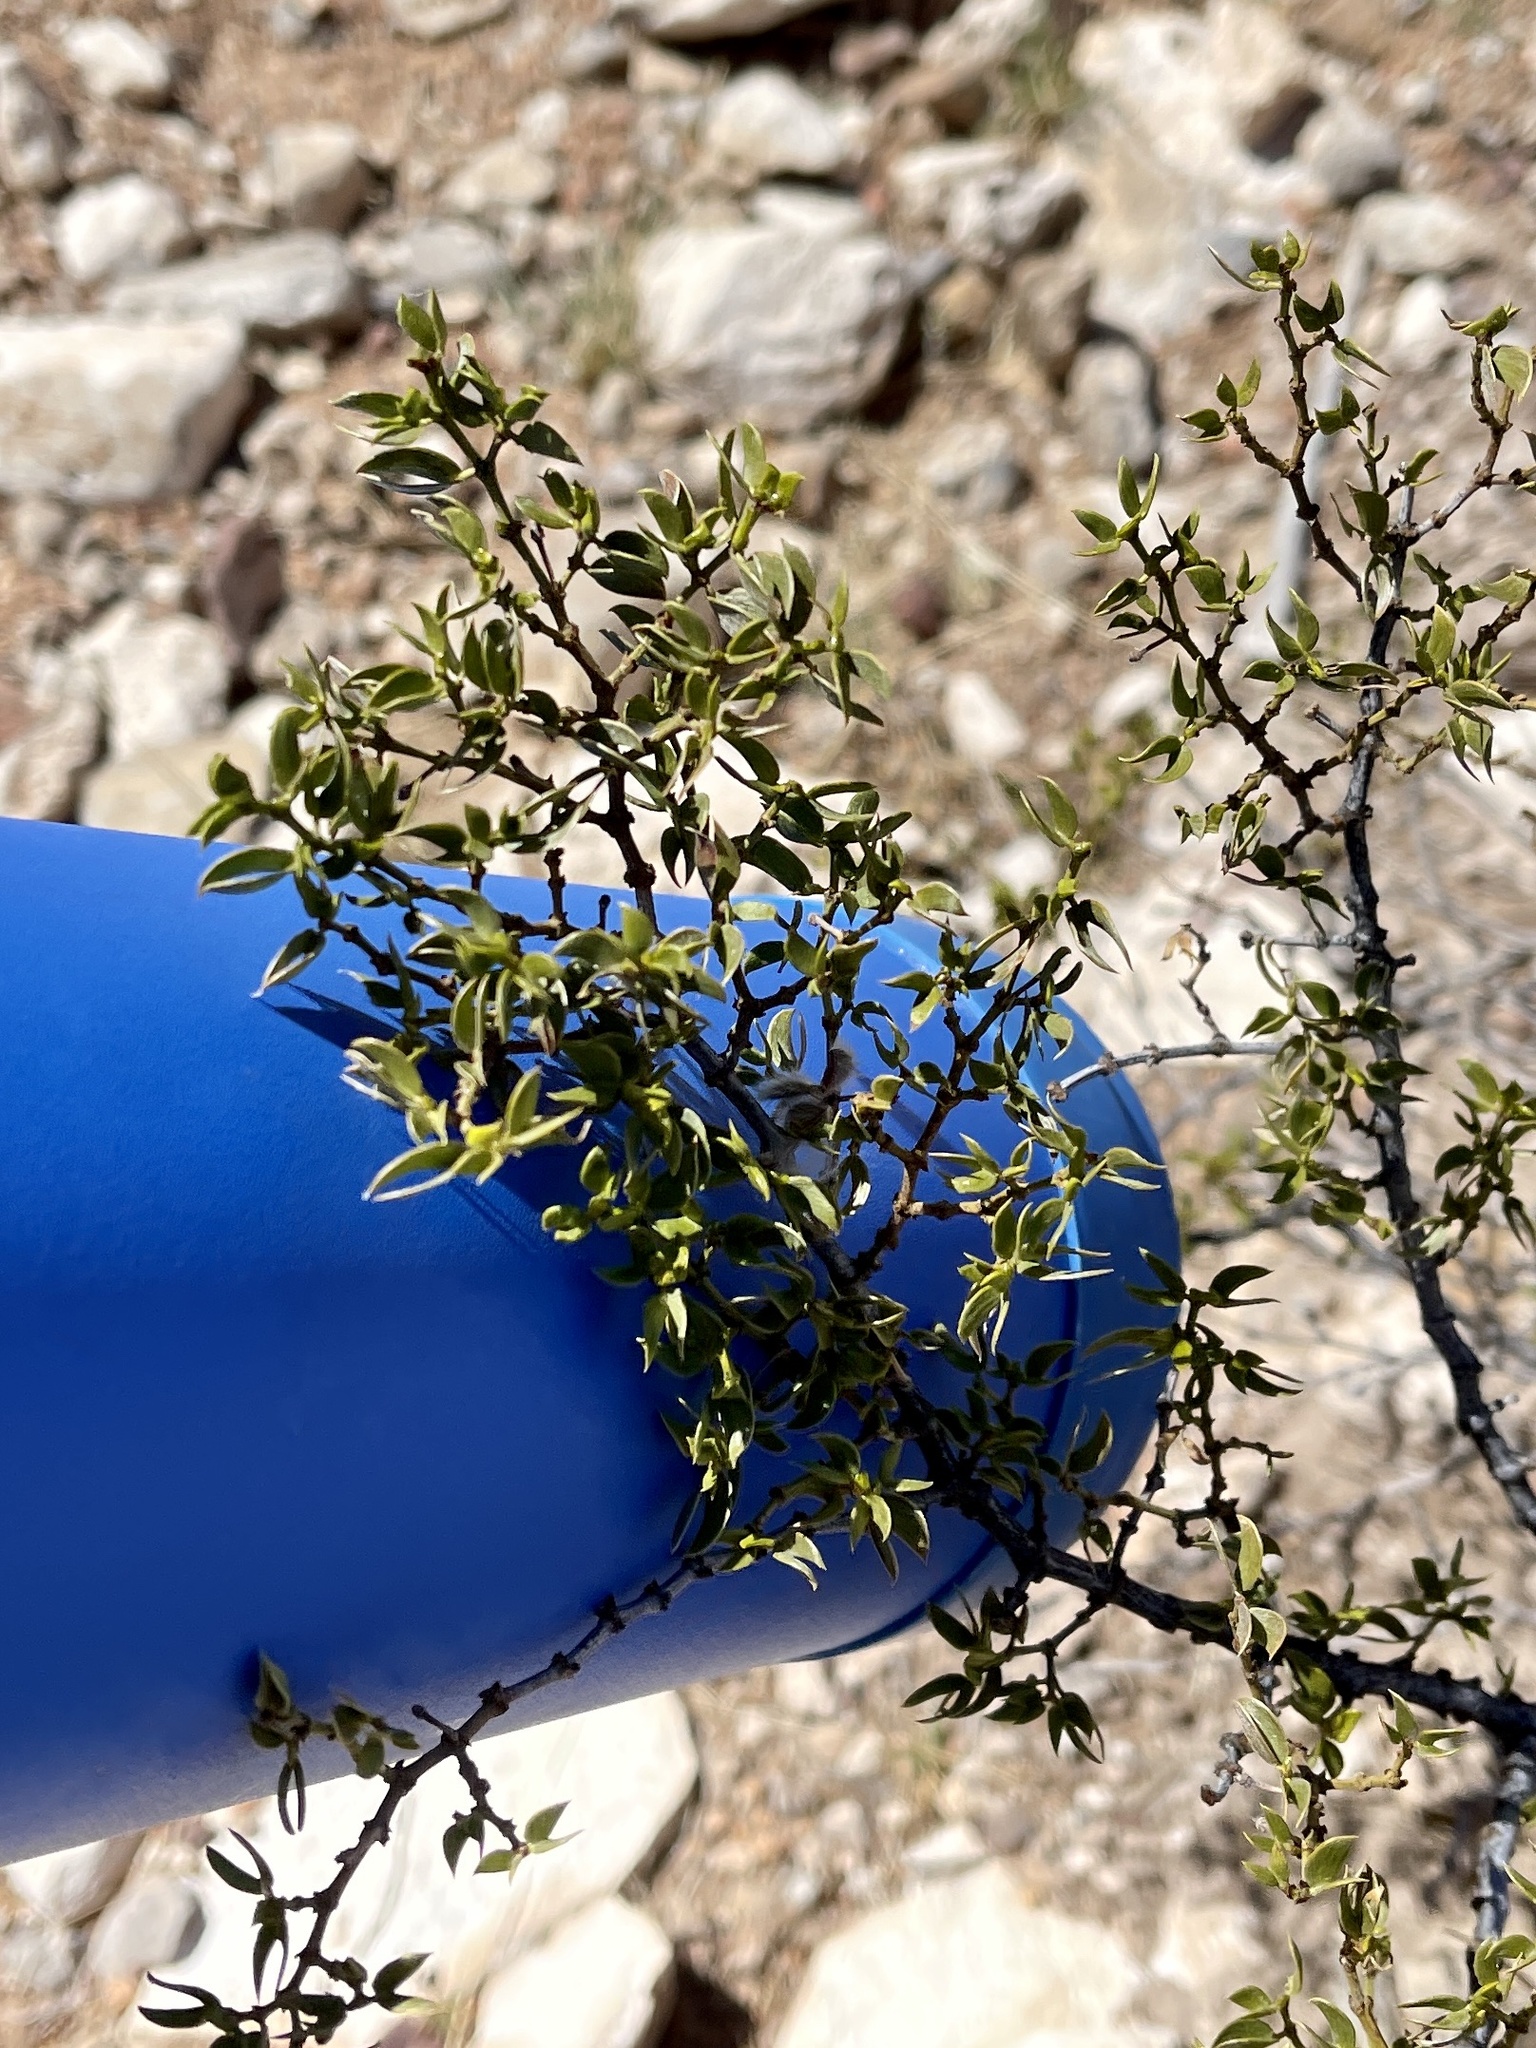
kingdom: Plantae
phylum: Tracheophyta
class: Magnoliopsida
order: Zygophyllales
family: Zygophyllaceae
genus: Larrea
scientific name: Larrea tridentata
